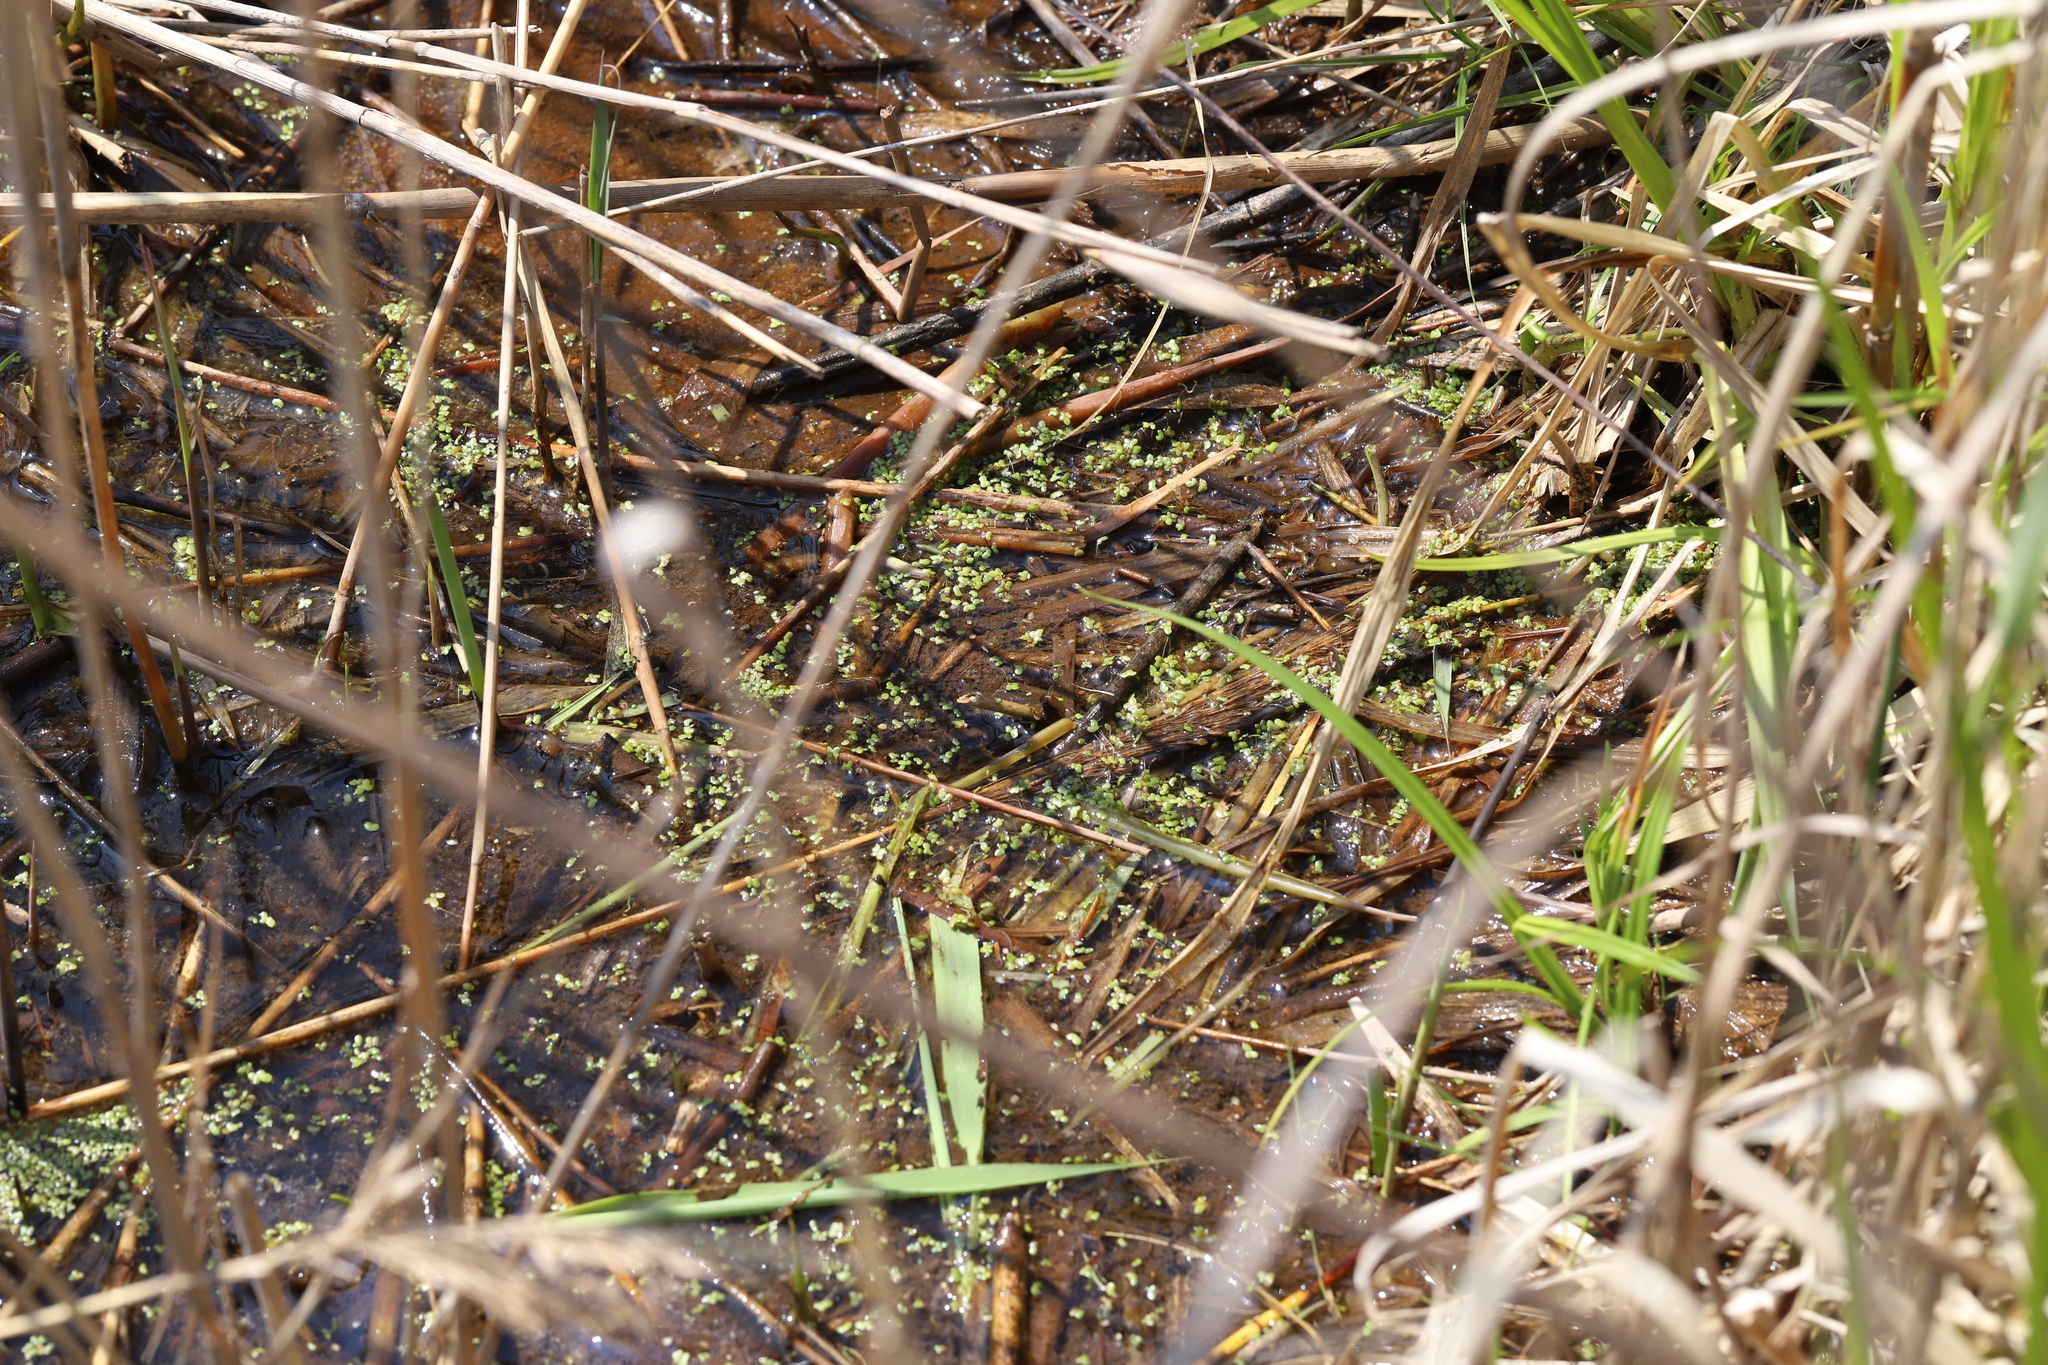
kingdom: Plantae
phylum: Tracheophyta
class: Liliopsida
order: Alismatales
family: Araceae
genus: Lemna
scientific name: Lemna minor
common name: Common duckweed
